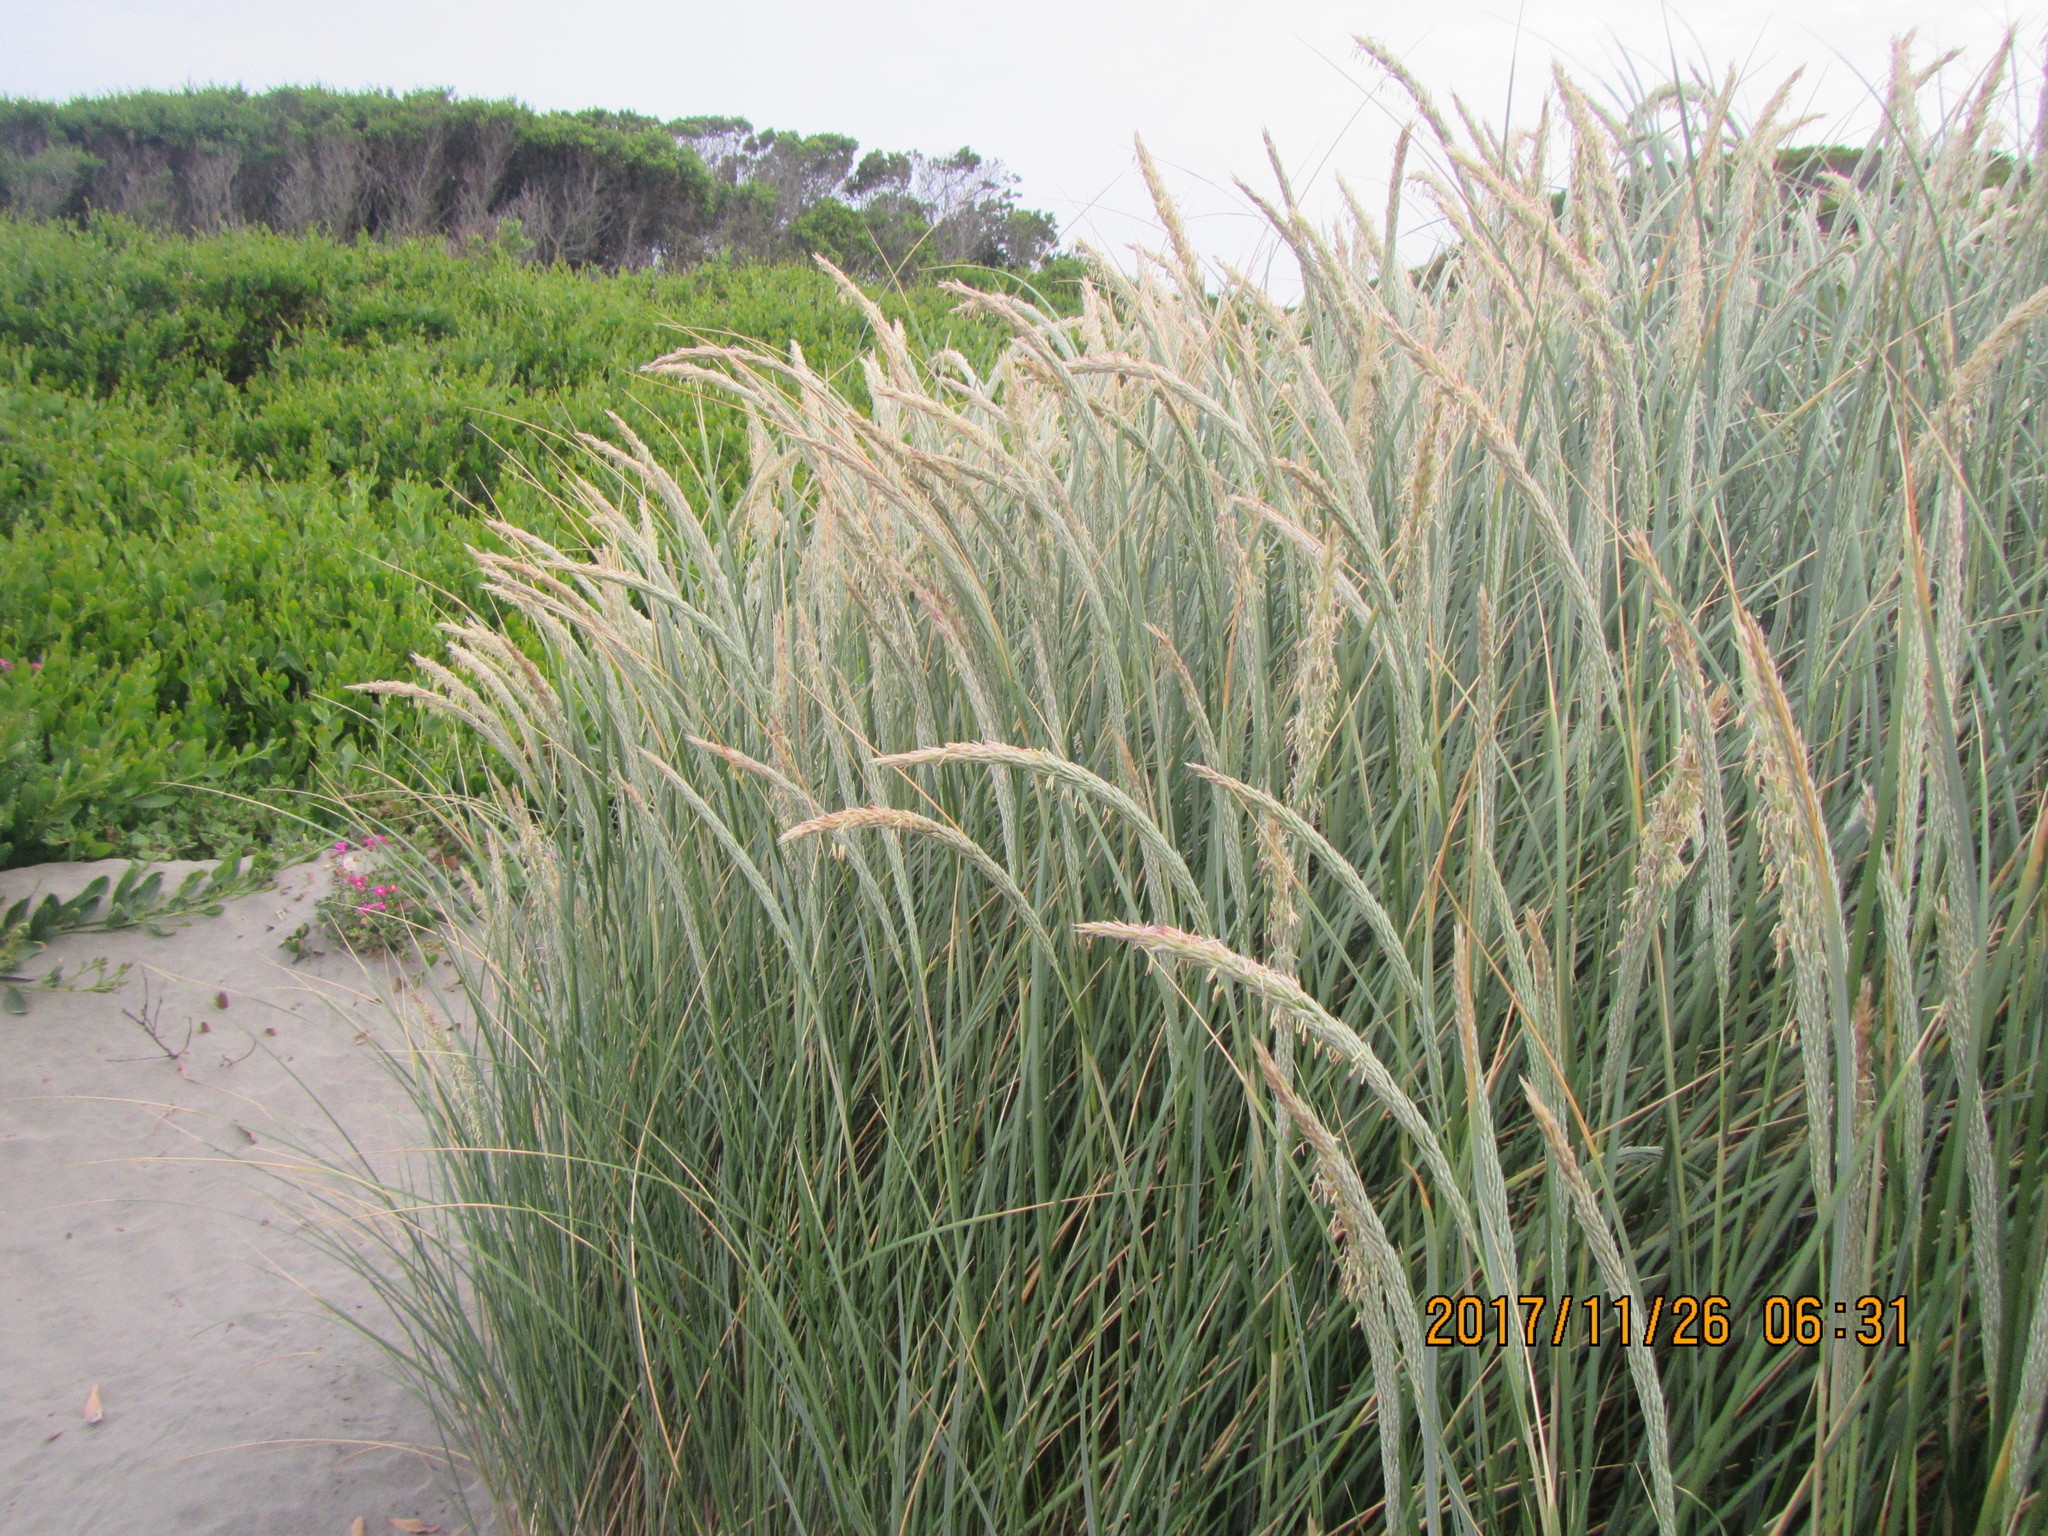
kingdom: Plantae
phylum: Tracheophyta
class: Liliopsida
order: Poales
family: Poaceae
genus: Calamagrostis
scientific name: Calamagrostis arenaria
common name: European beachgrass
